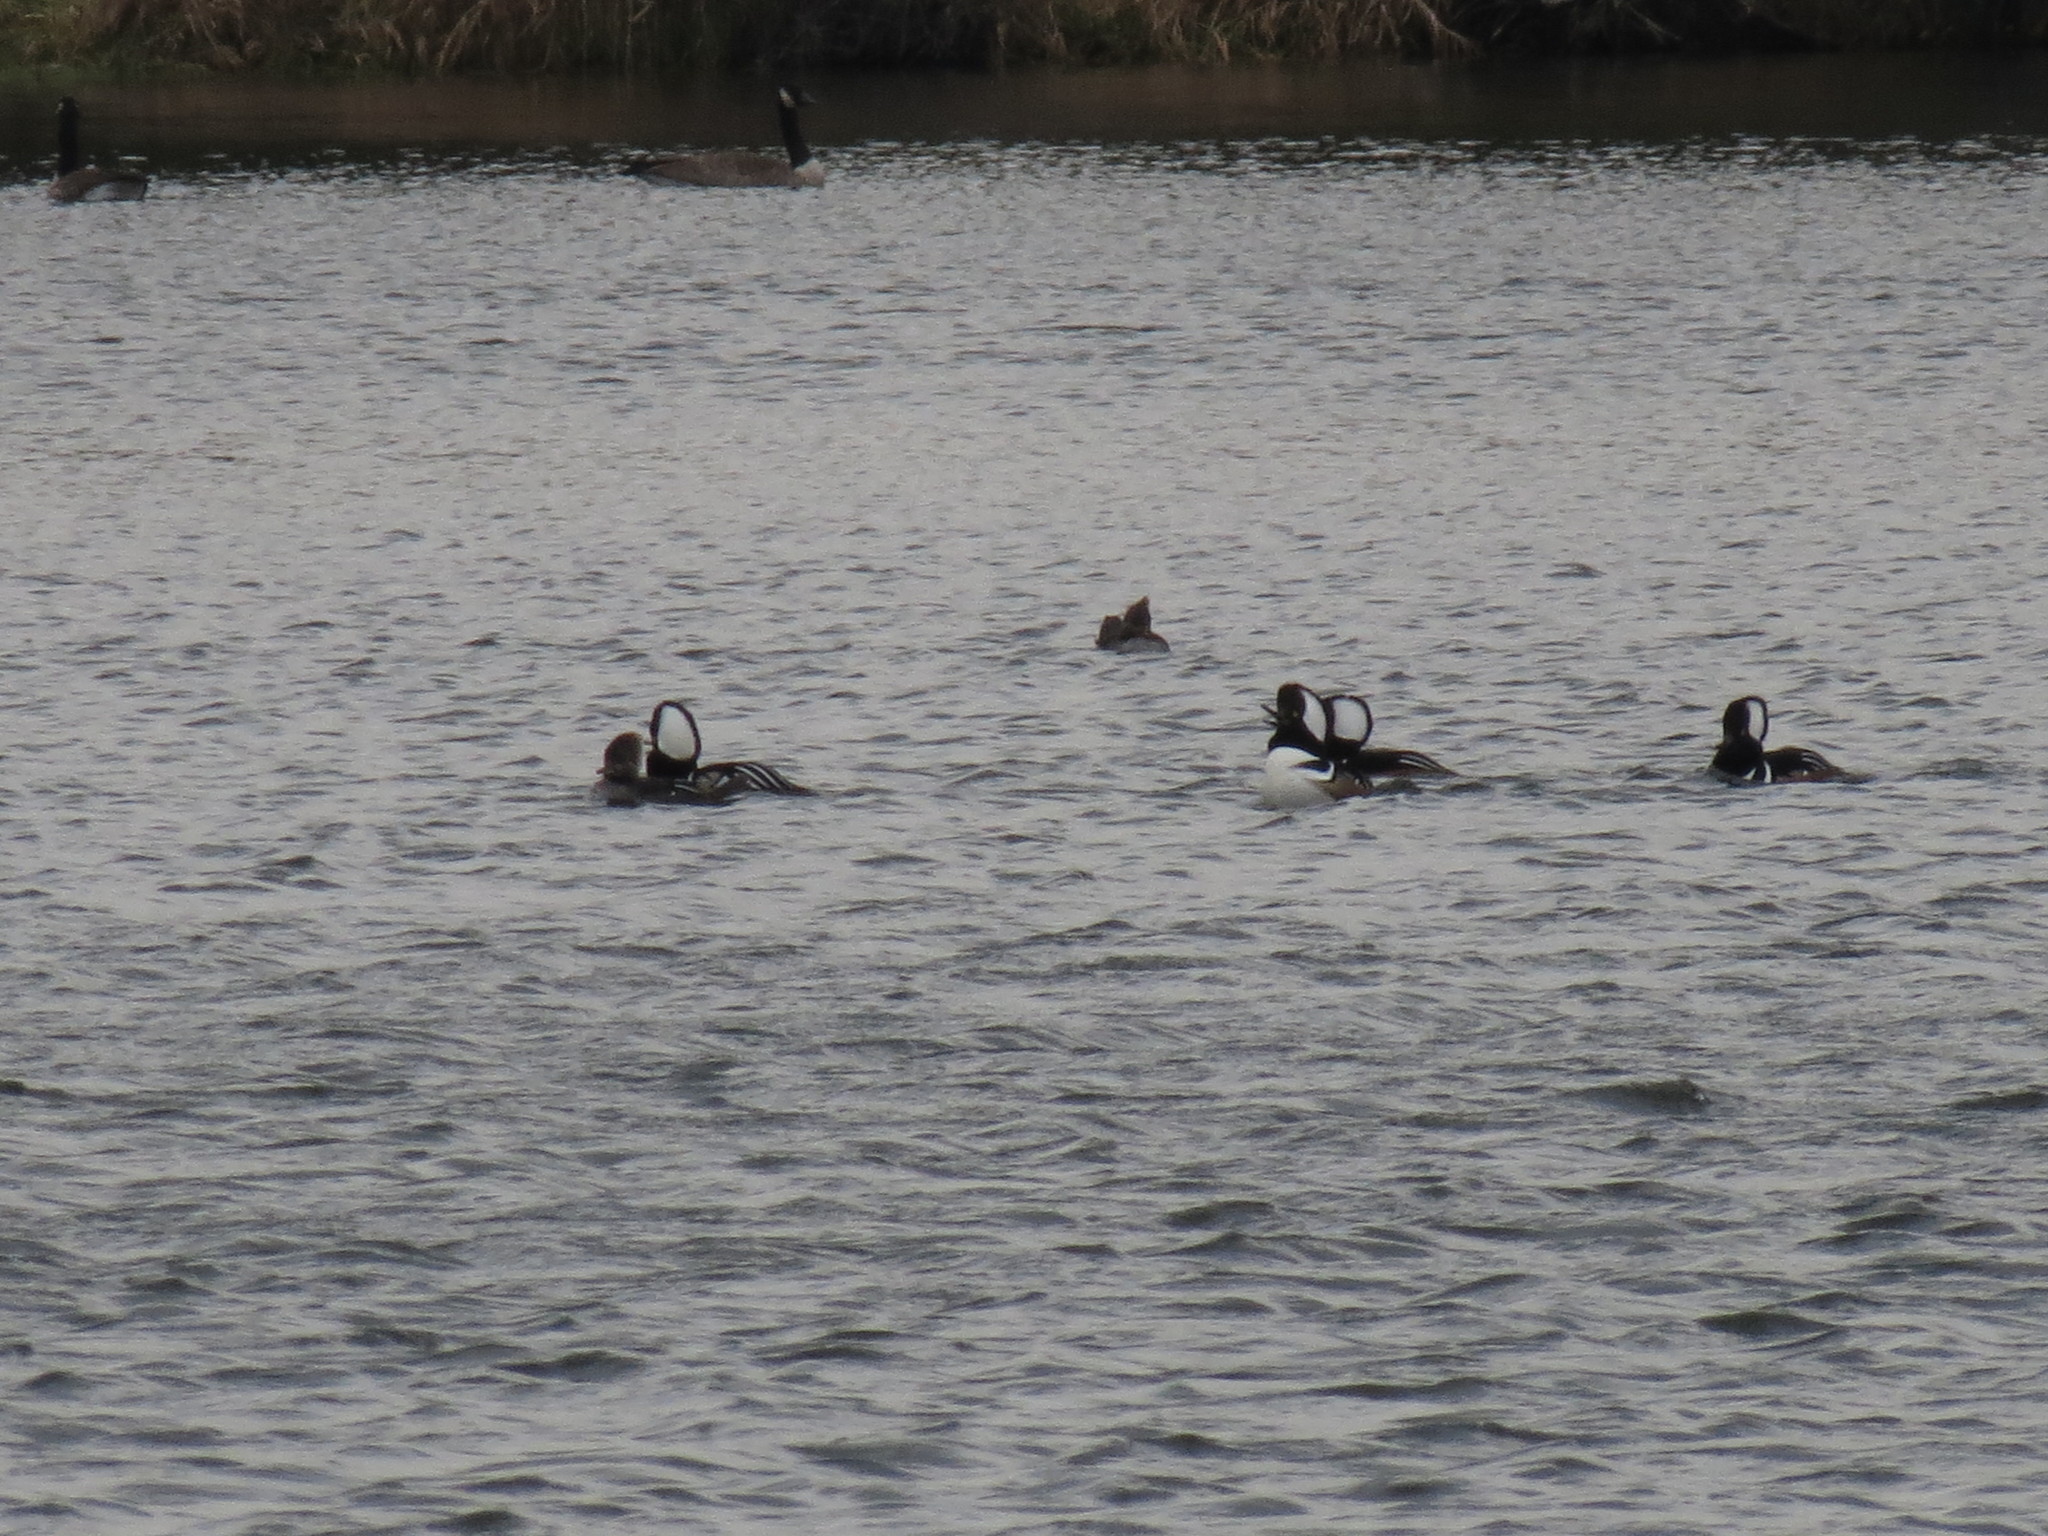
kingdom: Animalia
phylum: Chordata
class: Aves
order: Anseriformes
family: Anatidae
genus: Lophodytes
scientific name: Lophodytes cucullatus
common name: Hooded merganser
